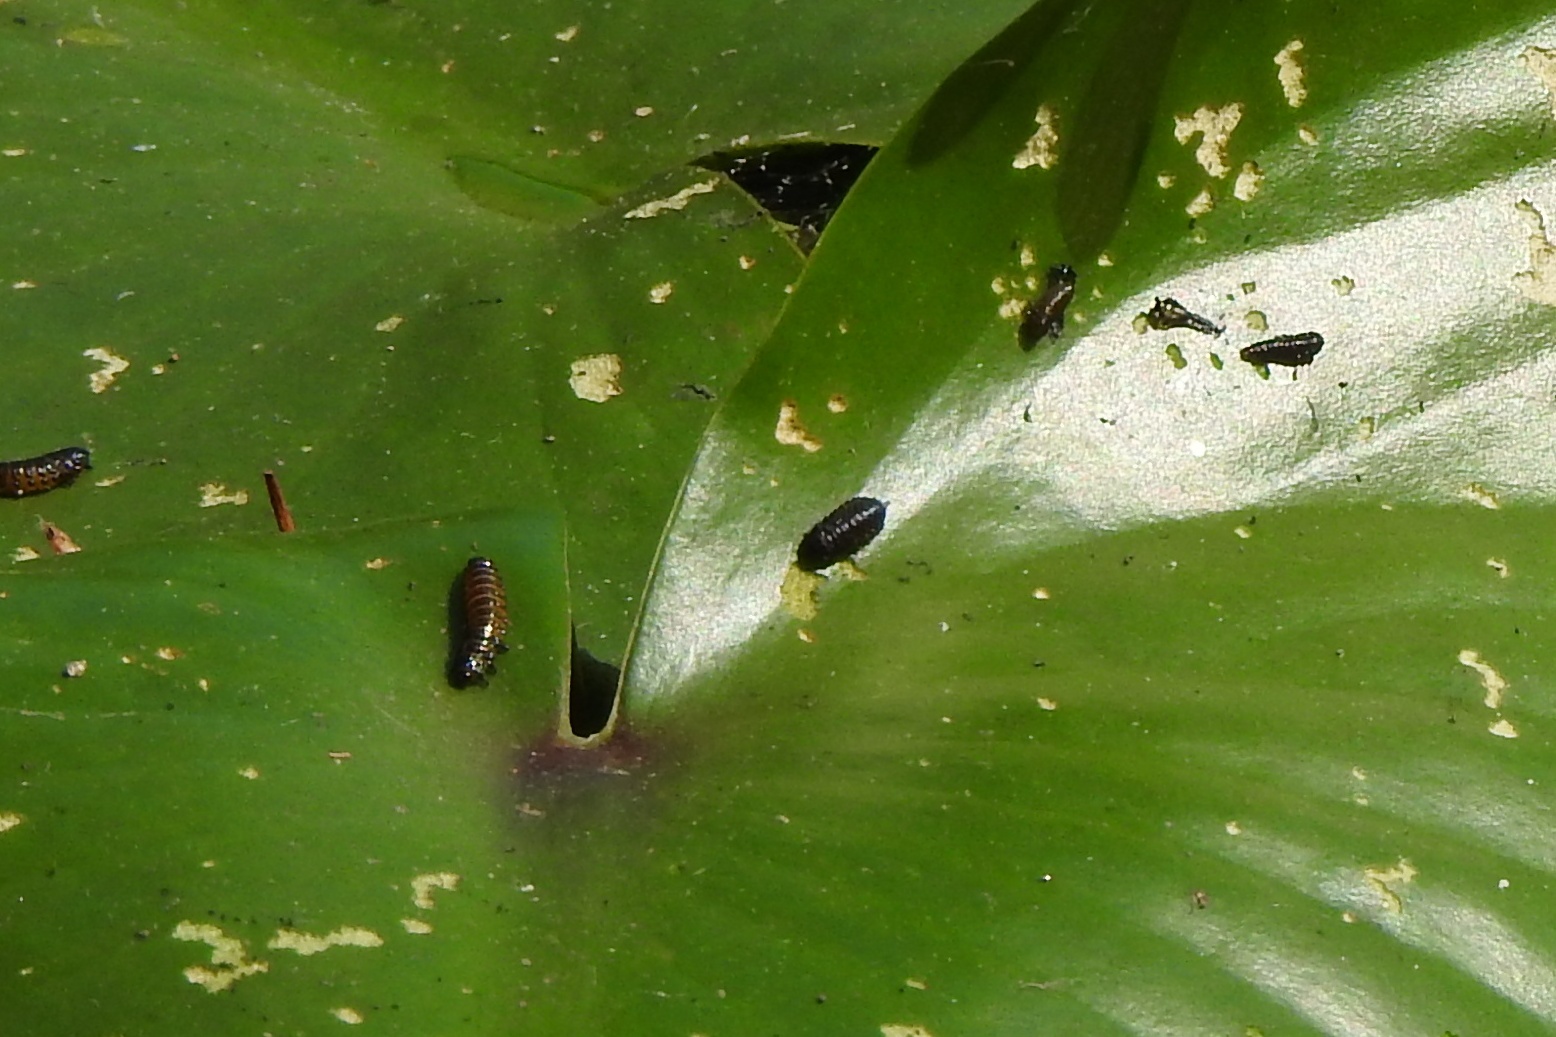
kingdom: Animalia
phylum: Arthropoda
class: Insecta
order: Coleoptera
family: Chrysomelidae
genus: Galerucella
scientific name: Galerucella nymphaeae
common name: Leaf beetle
